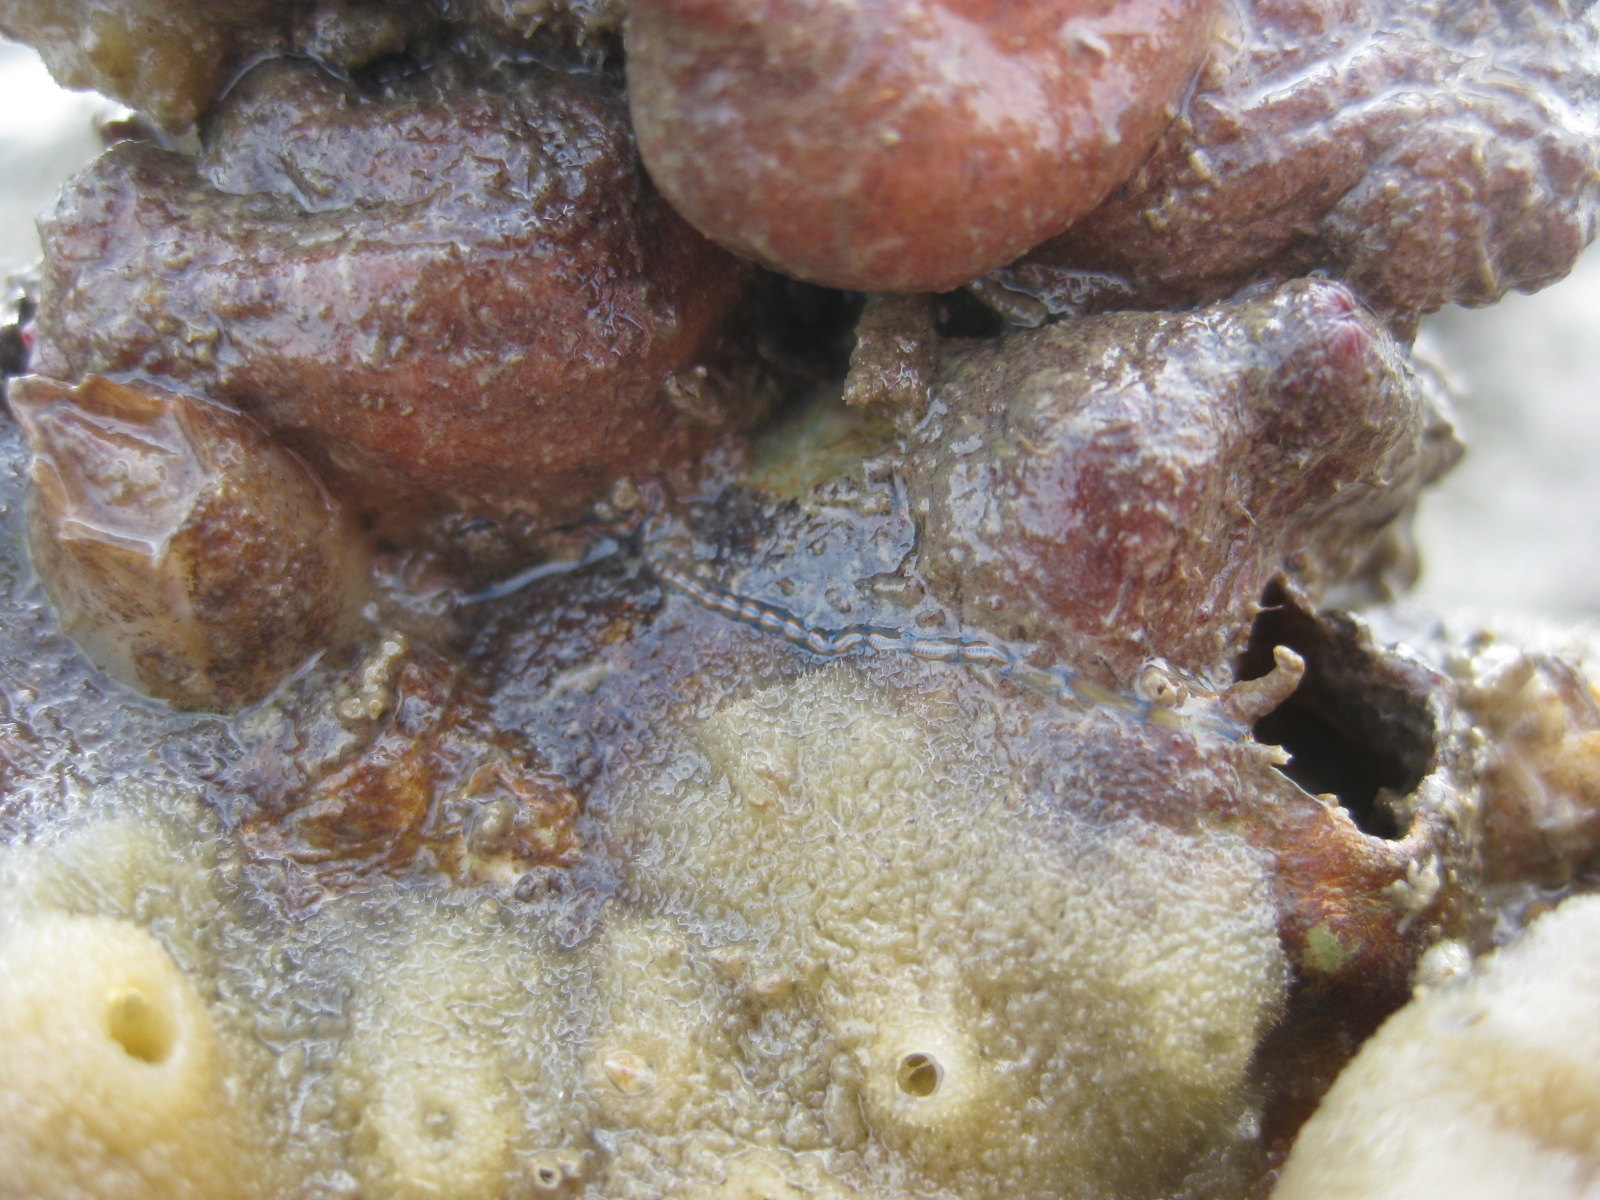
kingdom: Animalia
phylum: Annelida
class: Polychaeta
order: Phyllodocida
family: Syllidae
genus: Myrianida
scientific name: Myrianida pachycera
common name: Syllid polychaete
